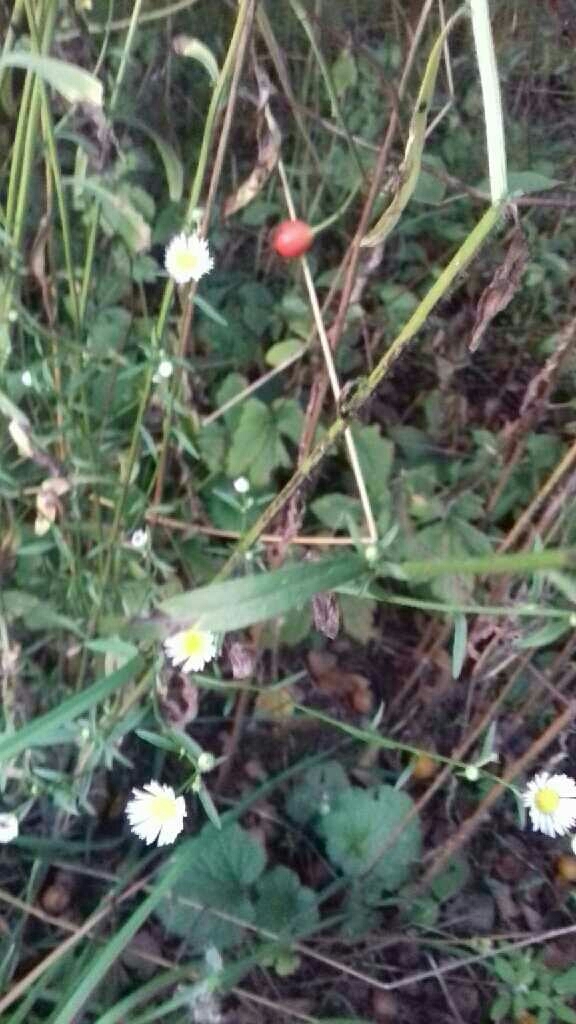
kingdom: Plantae
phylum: Tracheophyta
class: Magnoliopsida
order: Asterales
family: Asteraceae
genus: Erigeron
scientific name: Erigeron annuus
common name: Tall fleabane
